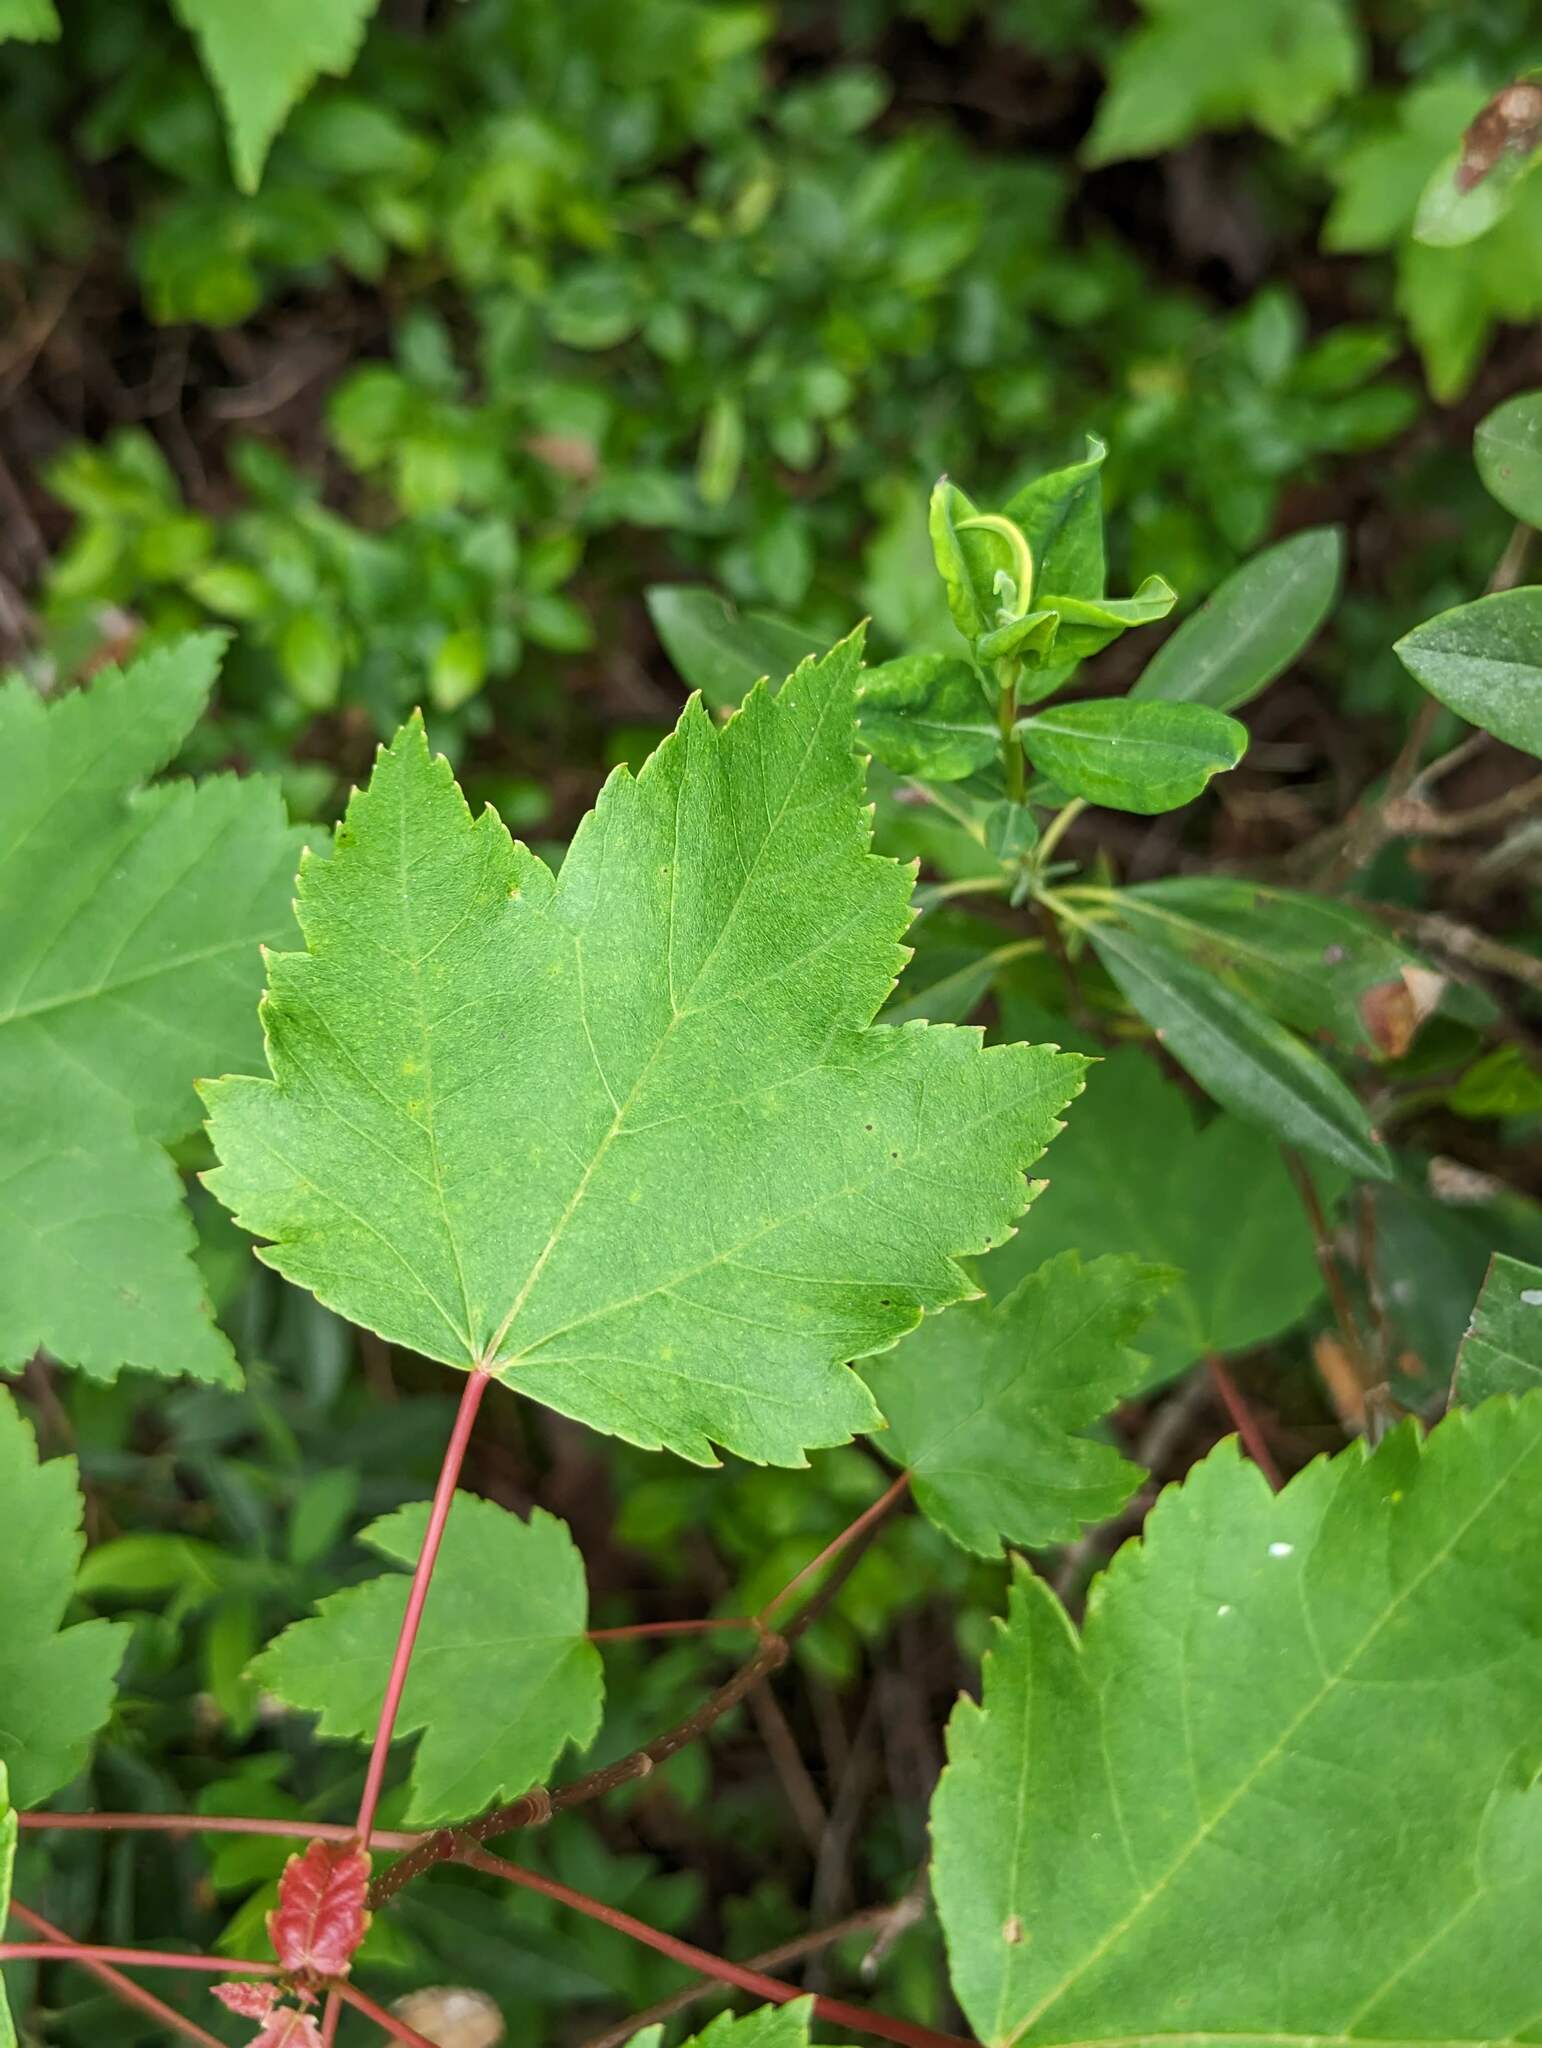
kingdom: Plantae
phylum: Tracheophyta
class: Magnoliopsida
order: Sapindales
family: Sapindaceae
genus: Acer
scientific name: Acer rubrum
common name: Red maple
